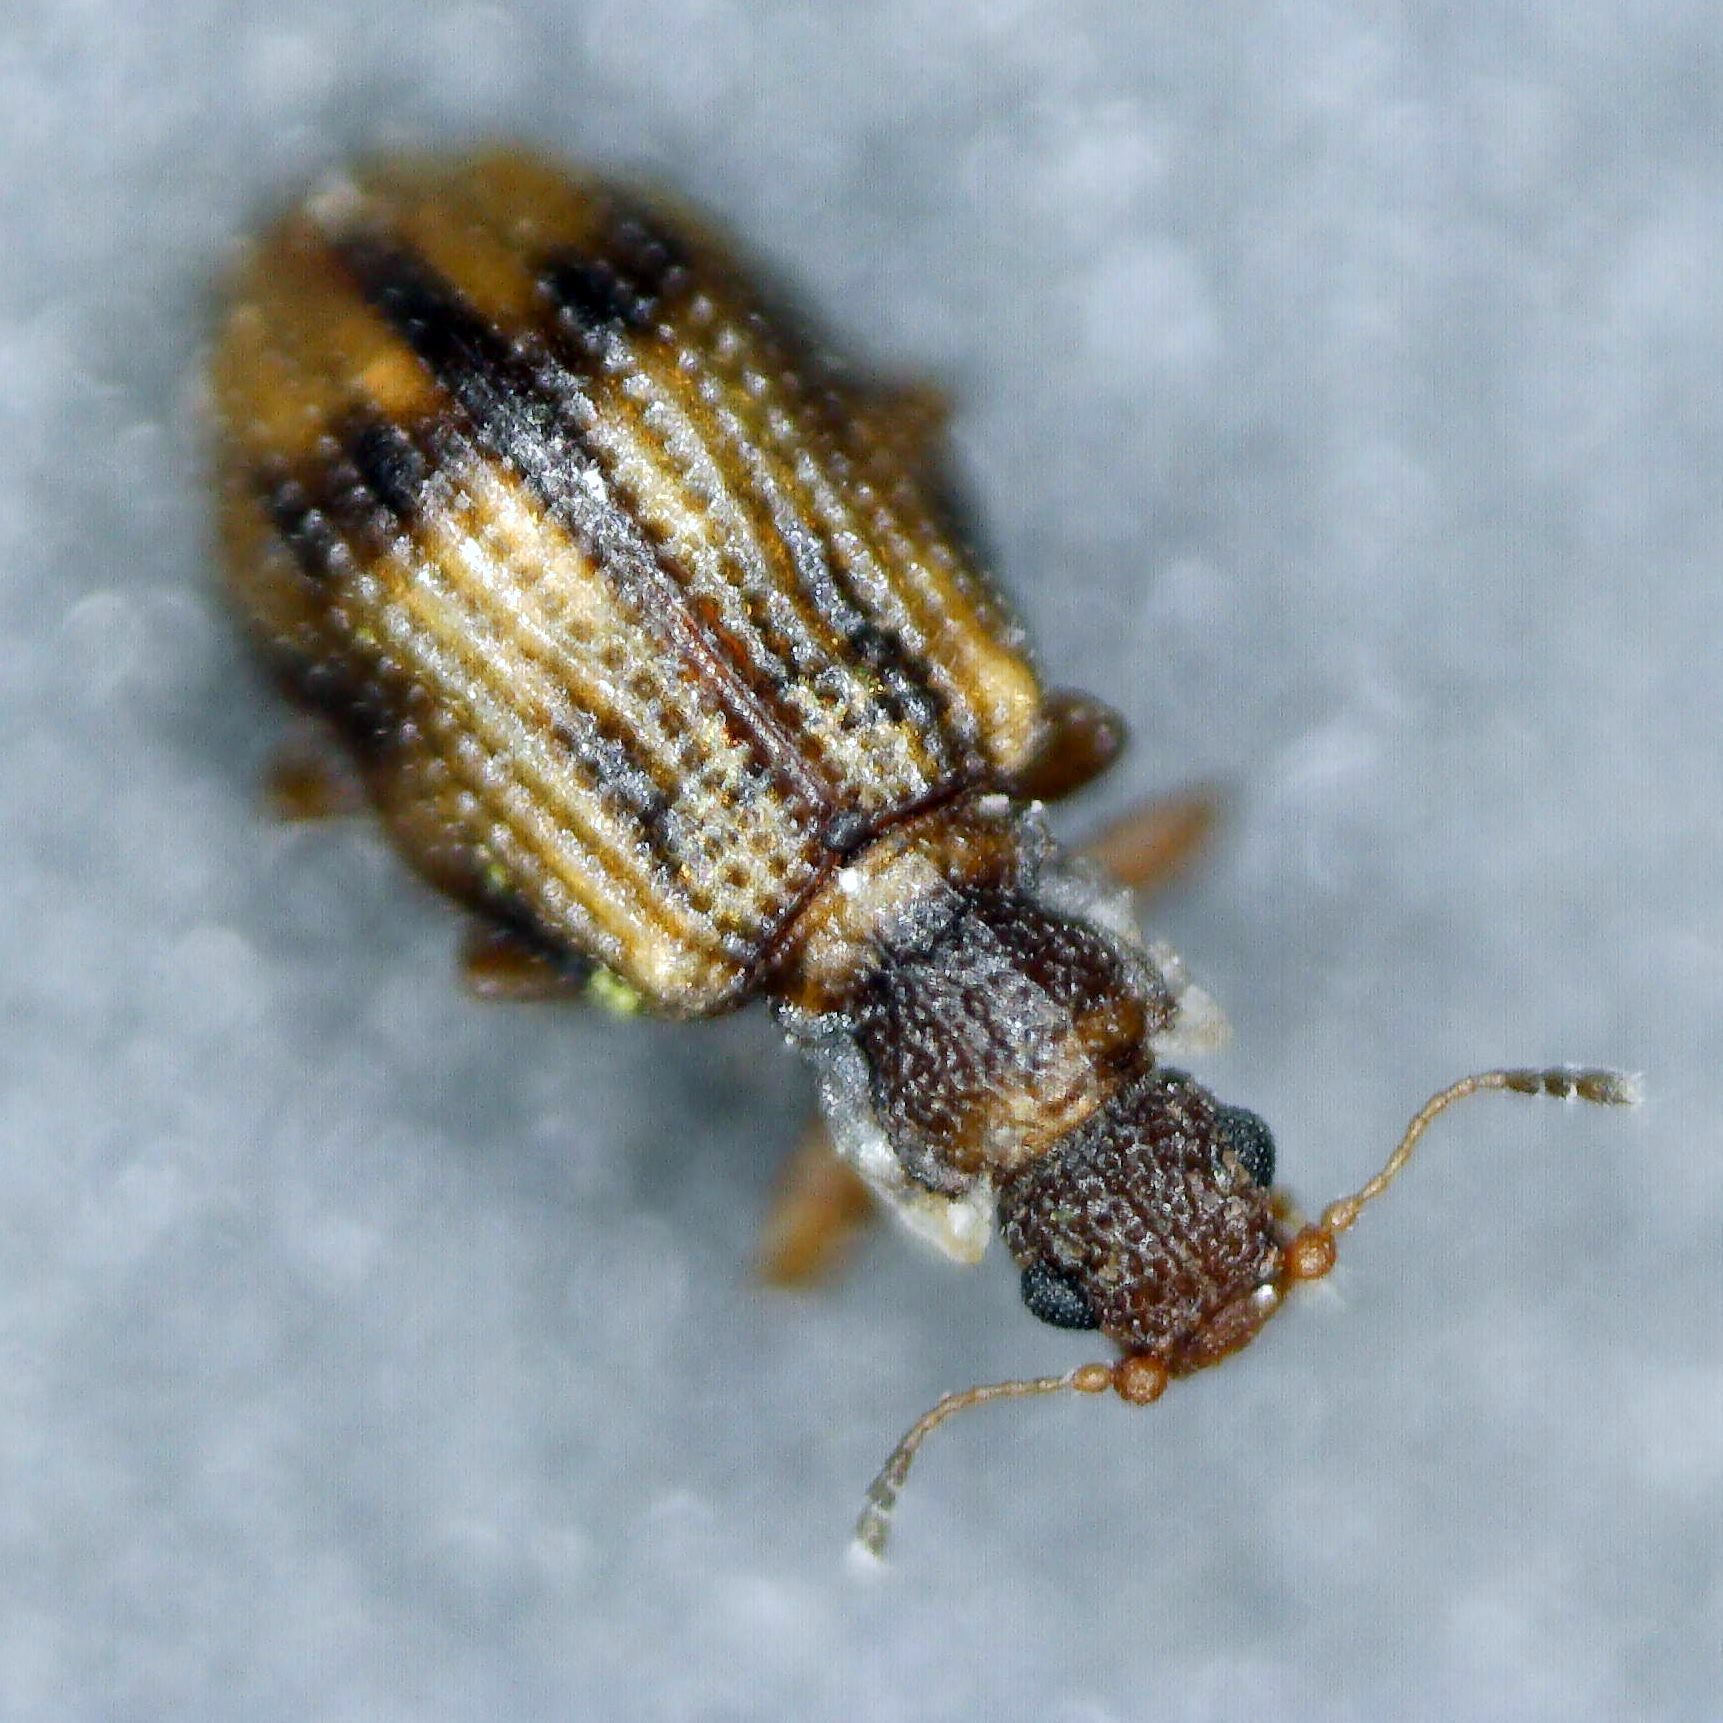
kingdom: Animalia
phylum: Arthropoda
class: Insecta
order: Coleoptera
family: Latridiidae
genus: Cartodere
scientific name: Cartodere bifasciata
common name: Plaster beetle
